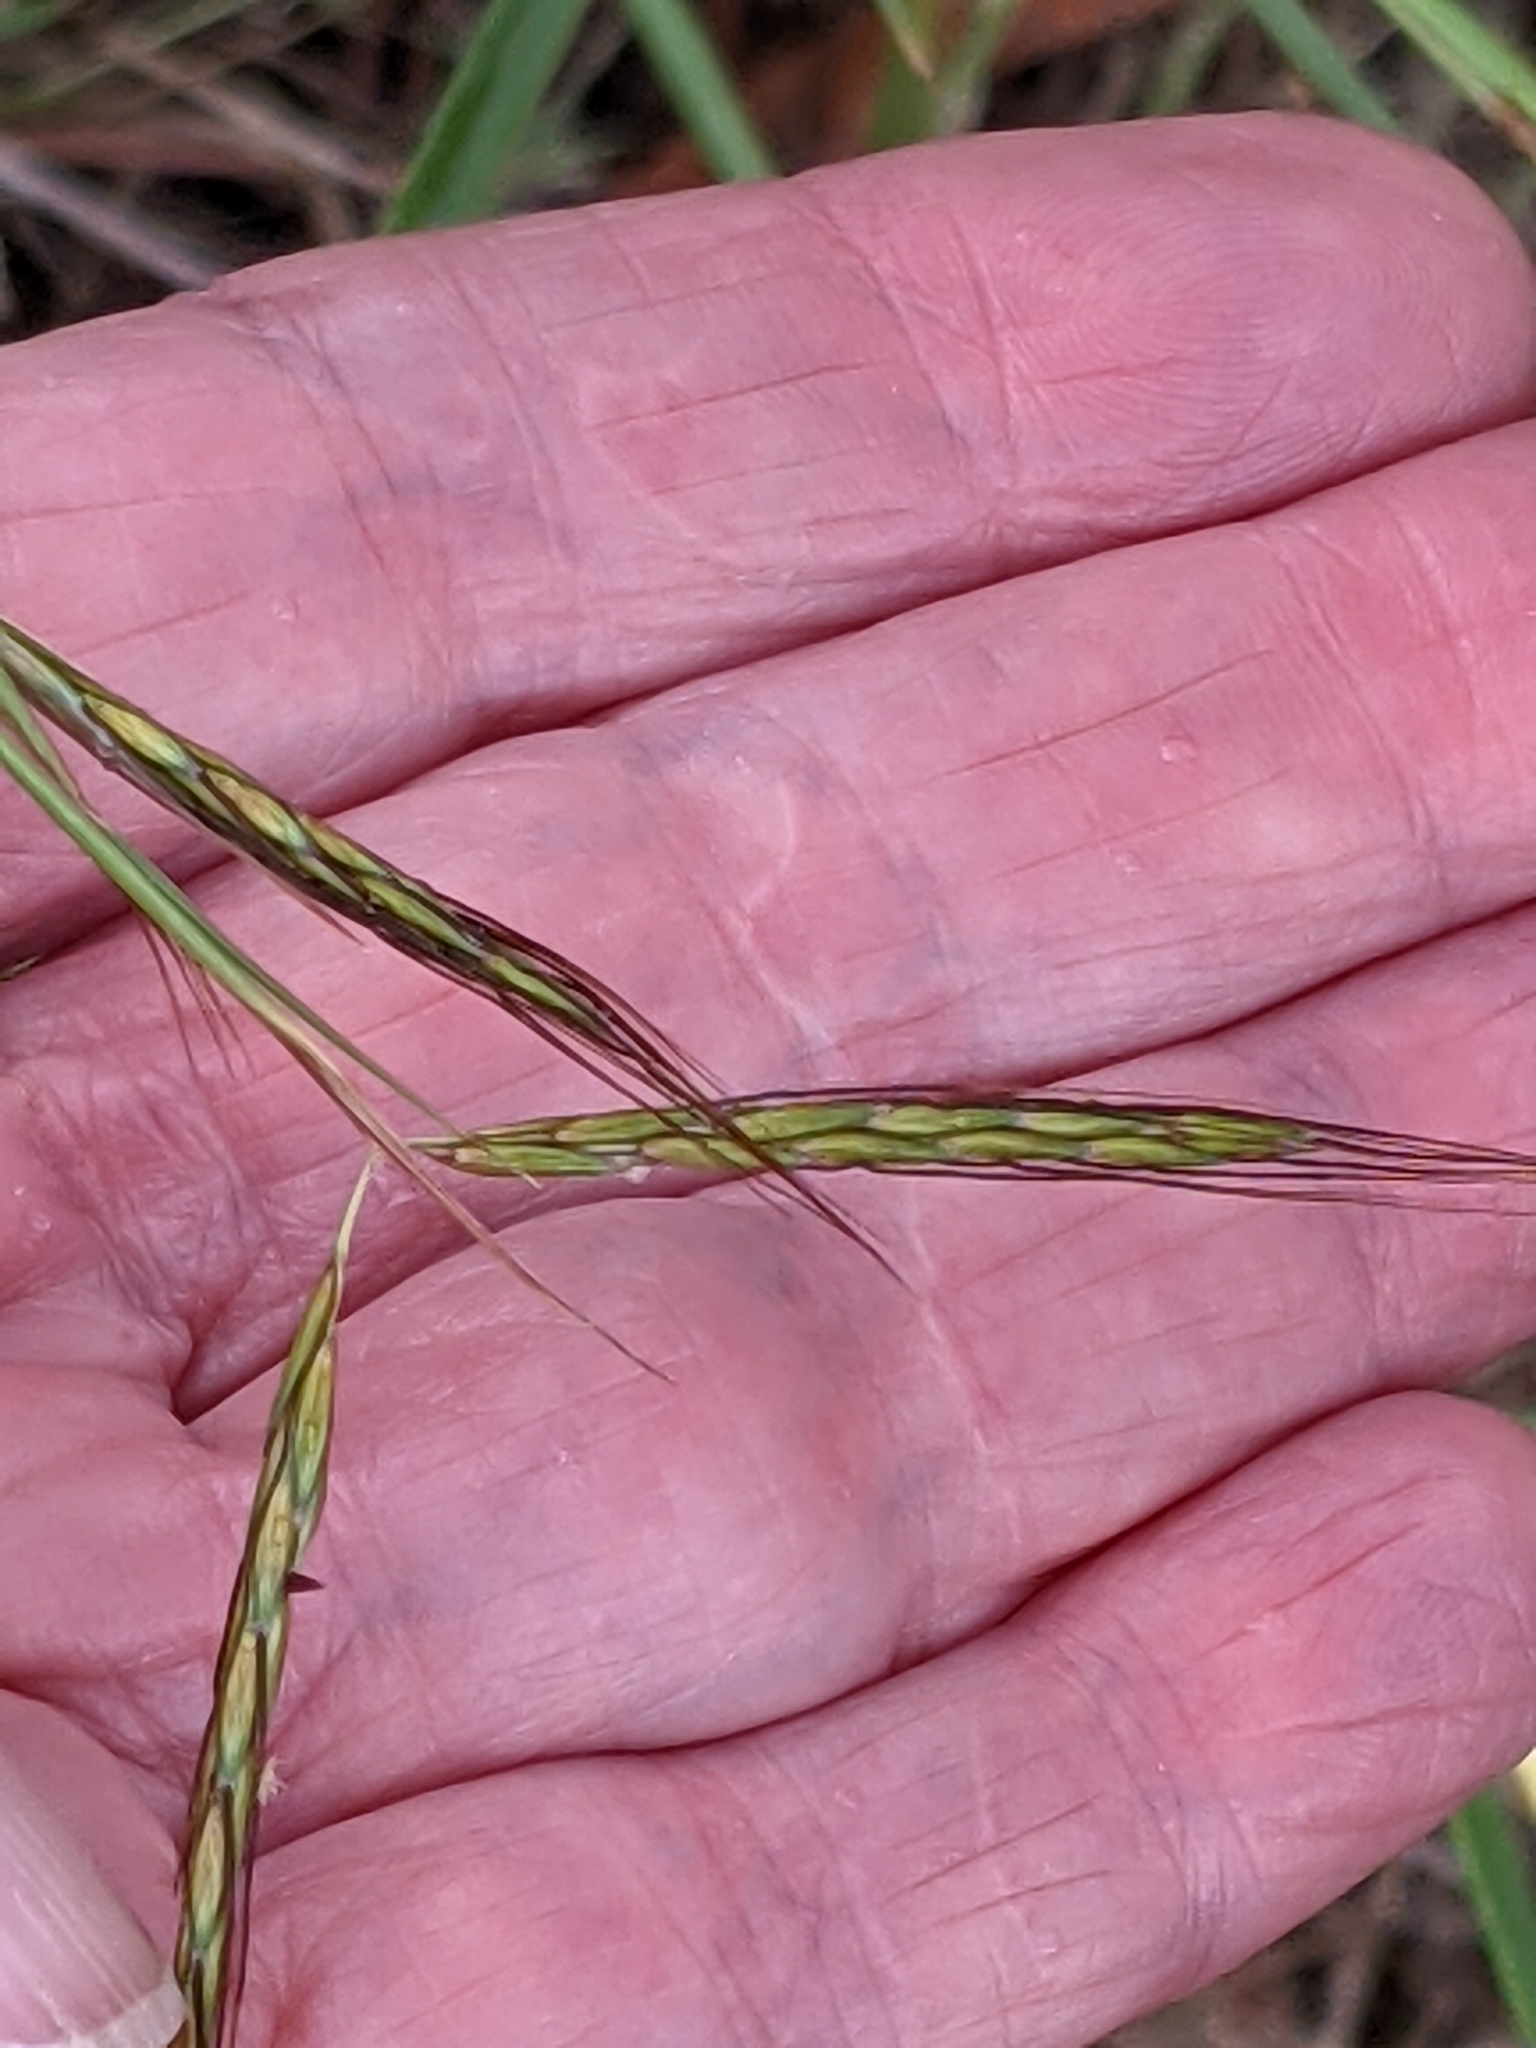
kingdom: Plantae
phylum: Tracheophyta
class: Liliopsida
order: Poales
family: Poaceae
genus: Hyparrhenia
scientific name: Hyparrhenia hirta
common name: Thatching grass
